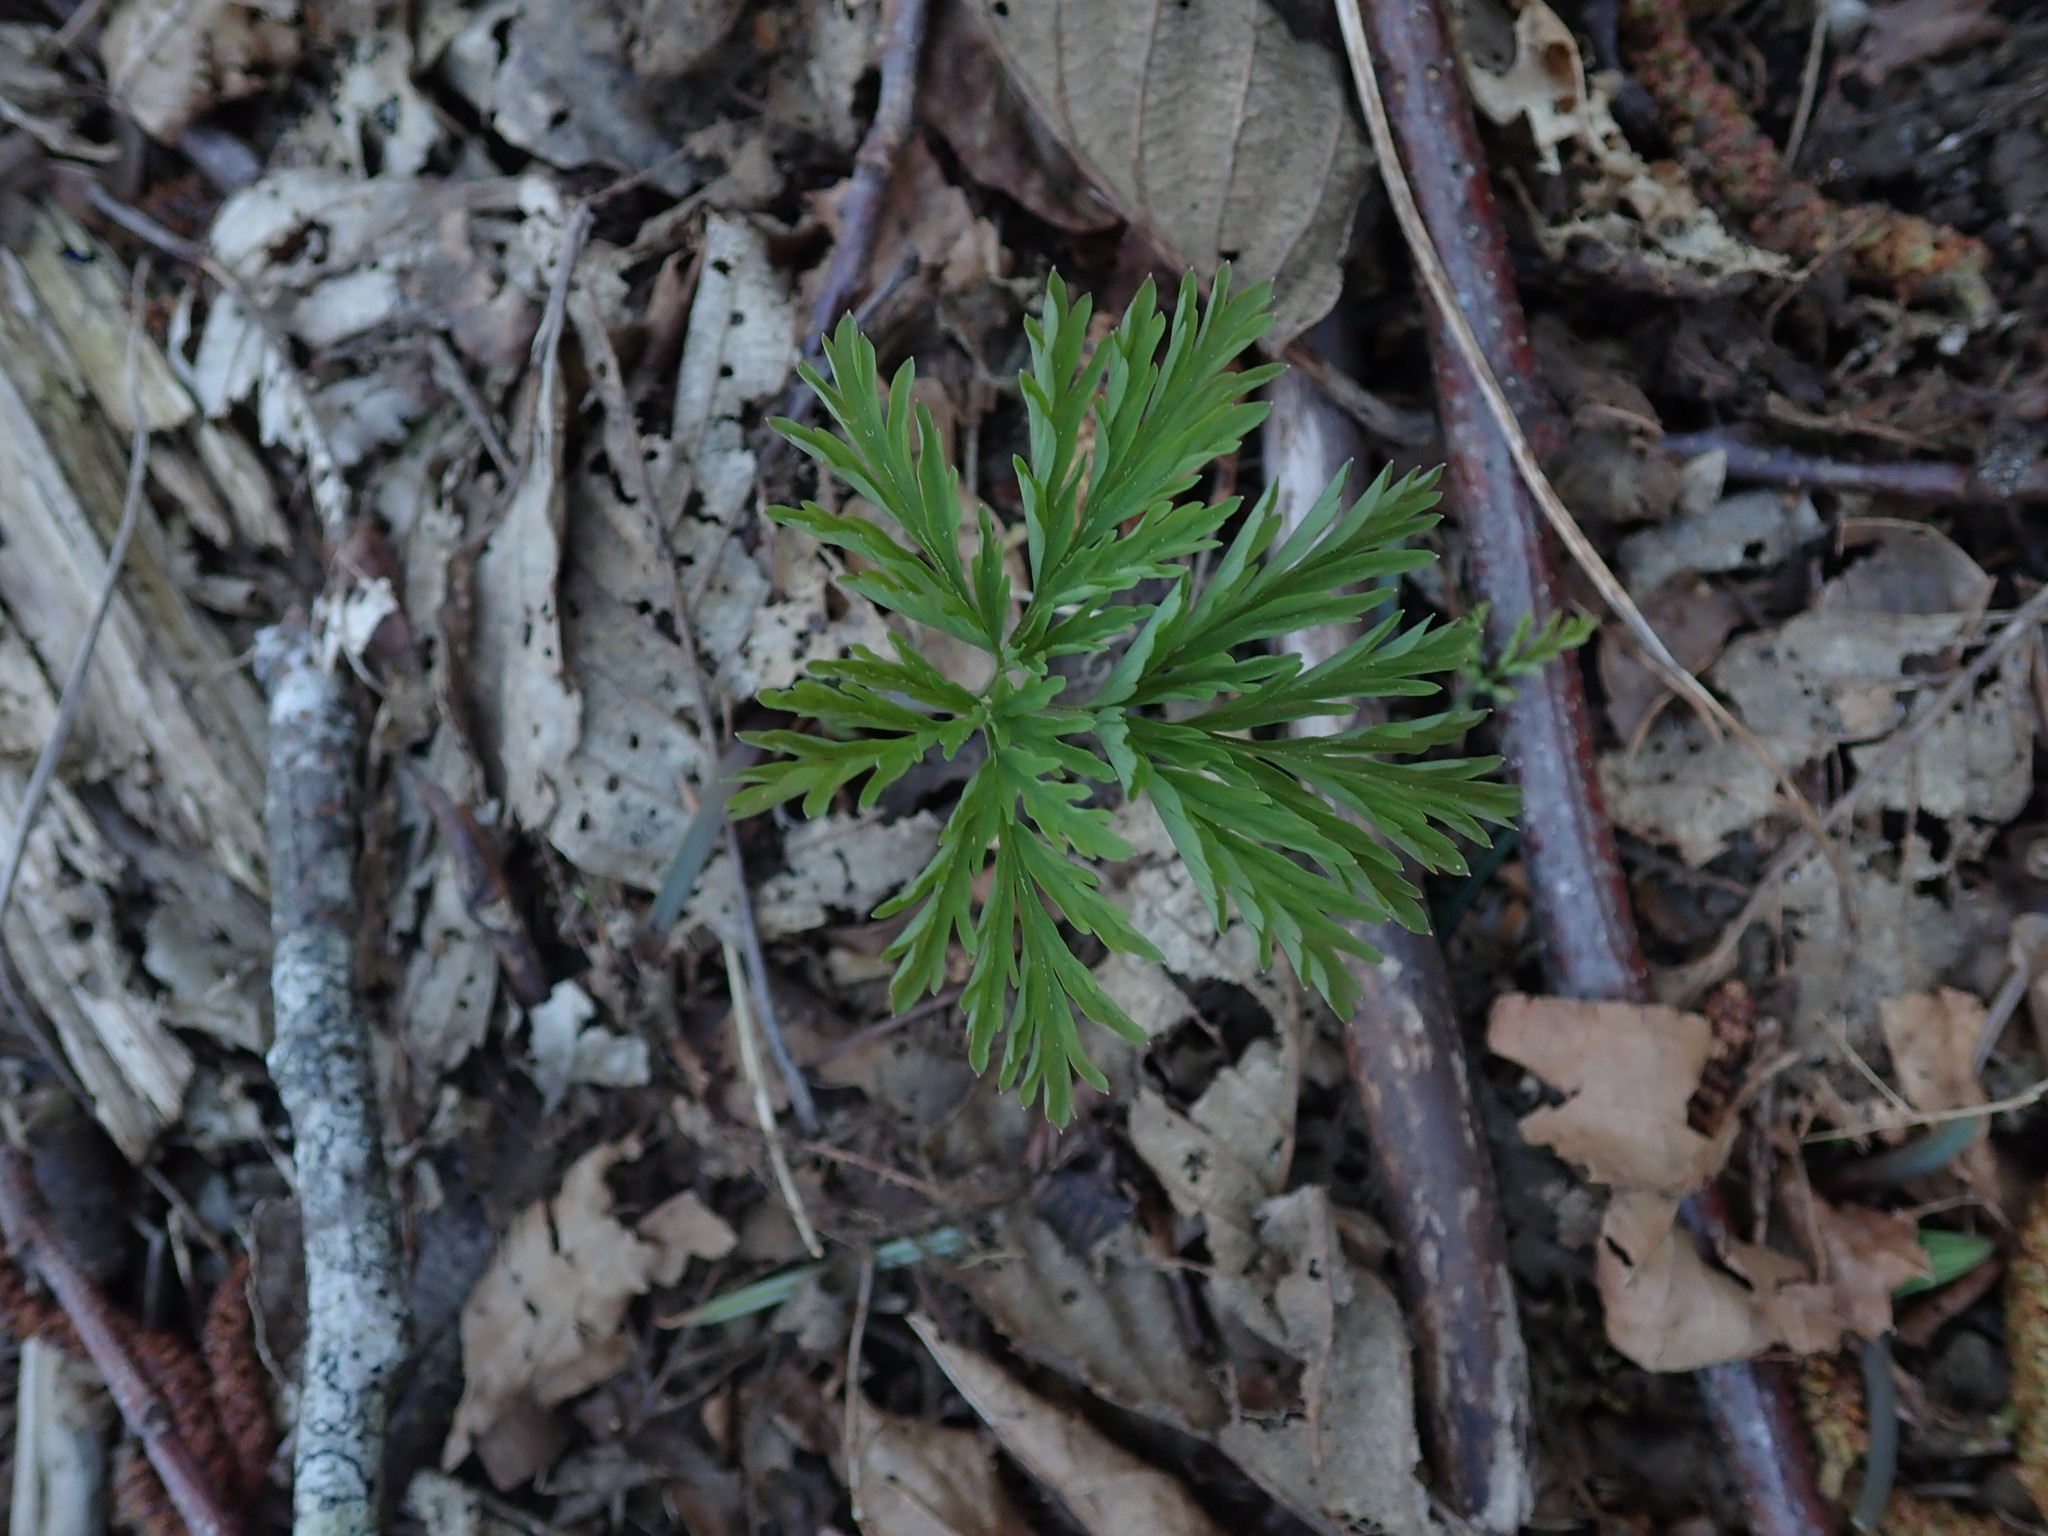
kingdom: Plantae
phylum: Tracheophyta
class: Magnoliopsida
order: Ranunculales
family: Papaveraceae
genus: Dicentra
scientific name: Dicentra formosa
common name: Bleeding-heart
